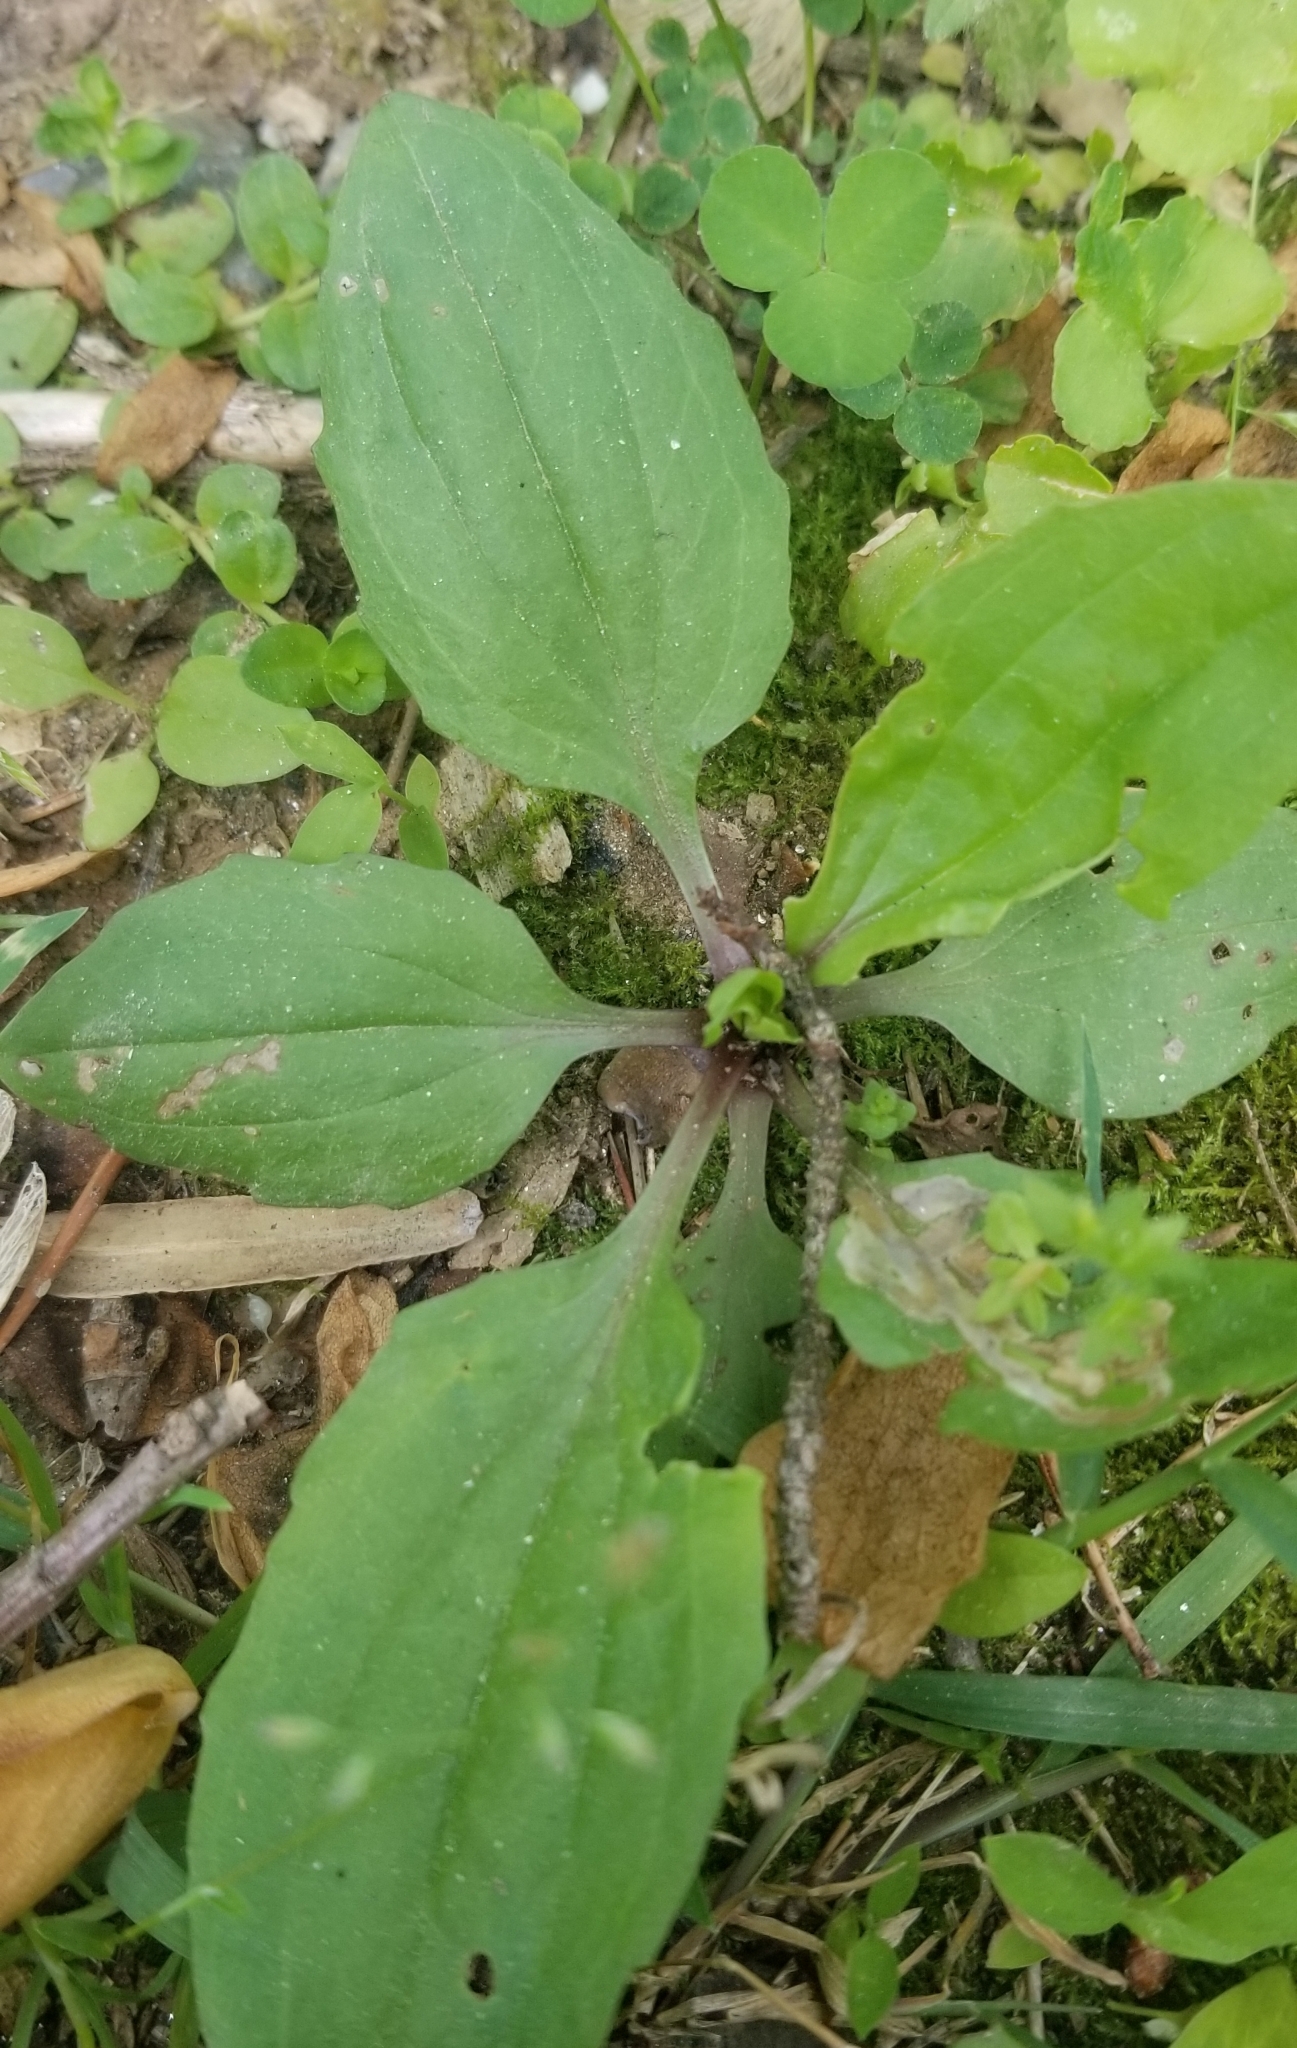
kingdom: Plantae
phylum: Tracheophyta
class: Magnoliopsida
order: Lamiales
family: Plantaginaceae
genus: Plantago
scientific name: Plantago rugelii
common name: American plantain
